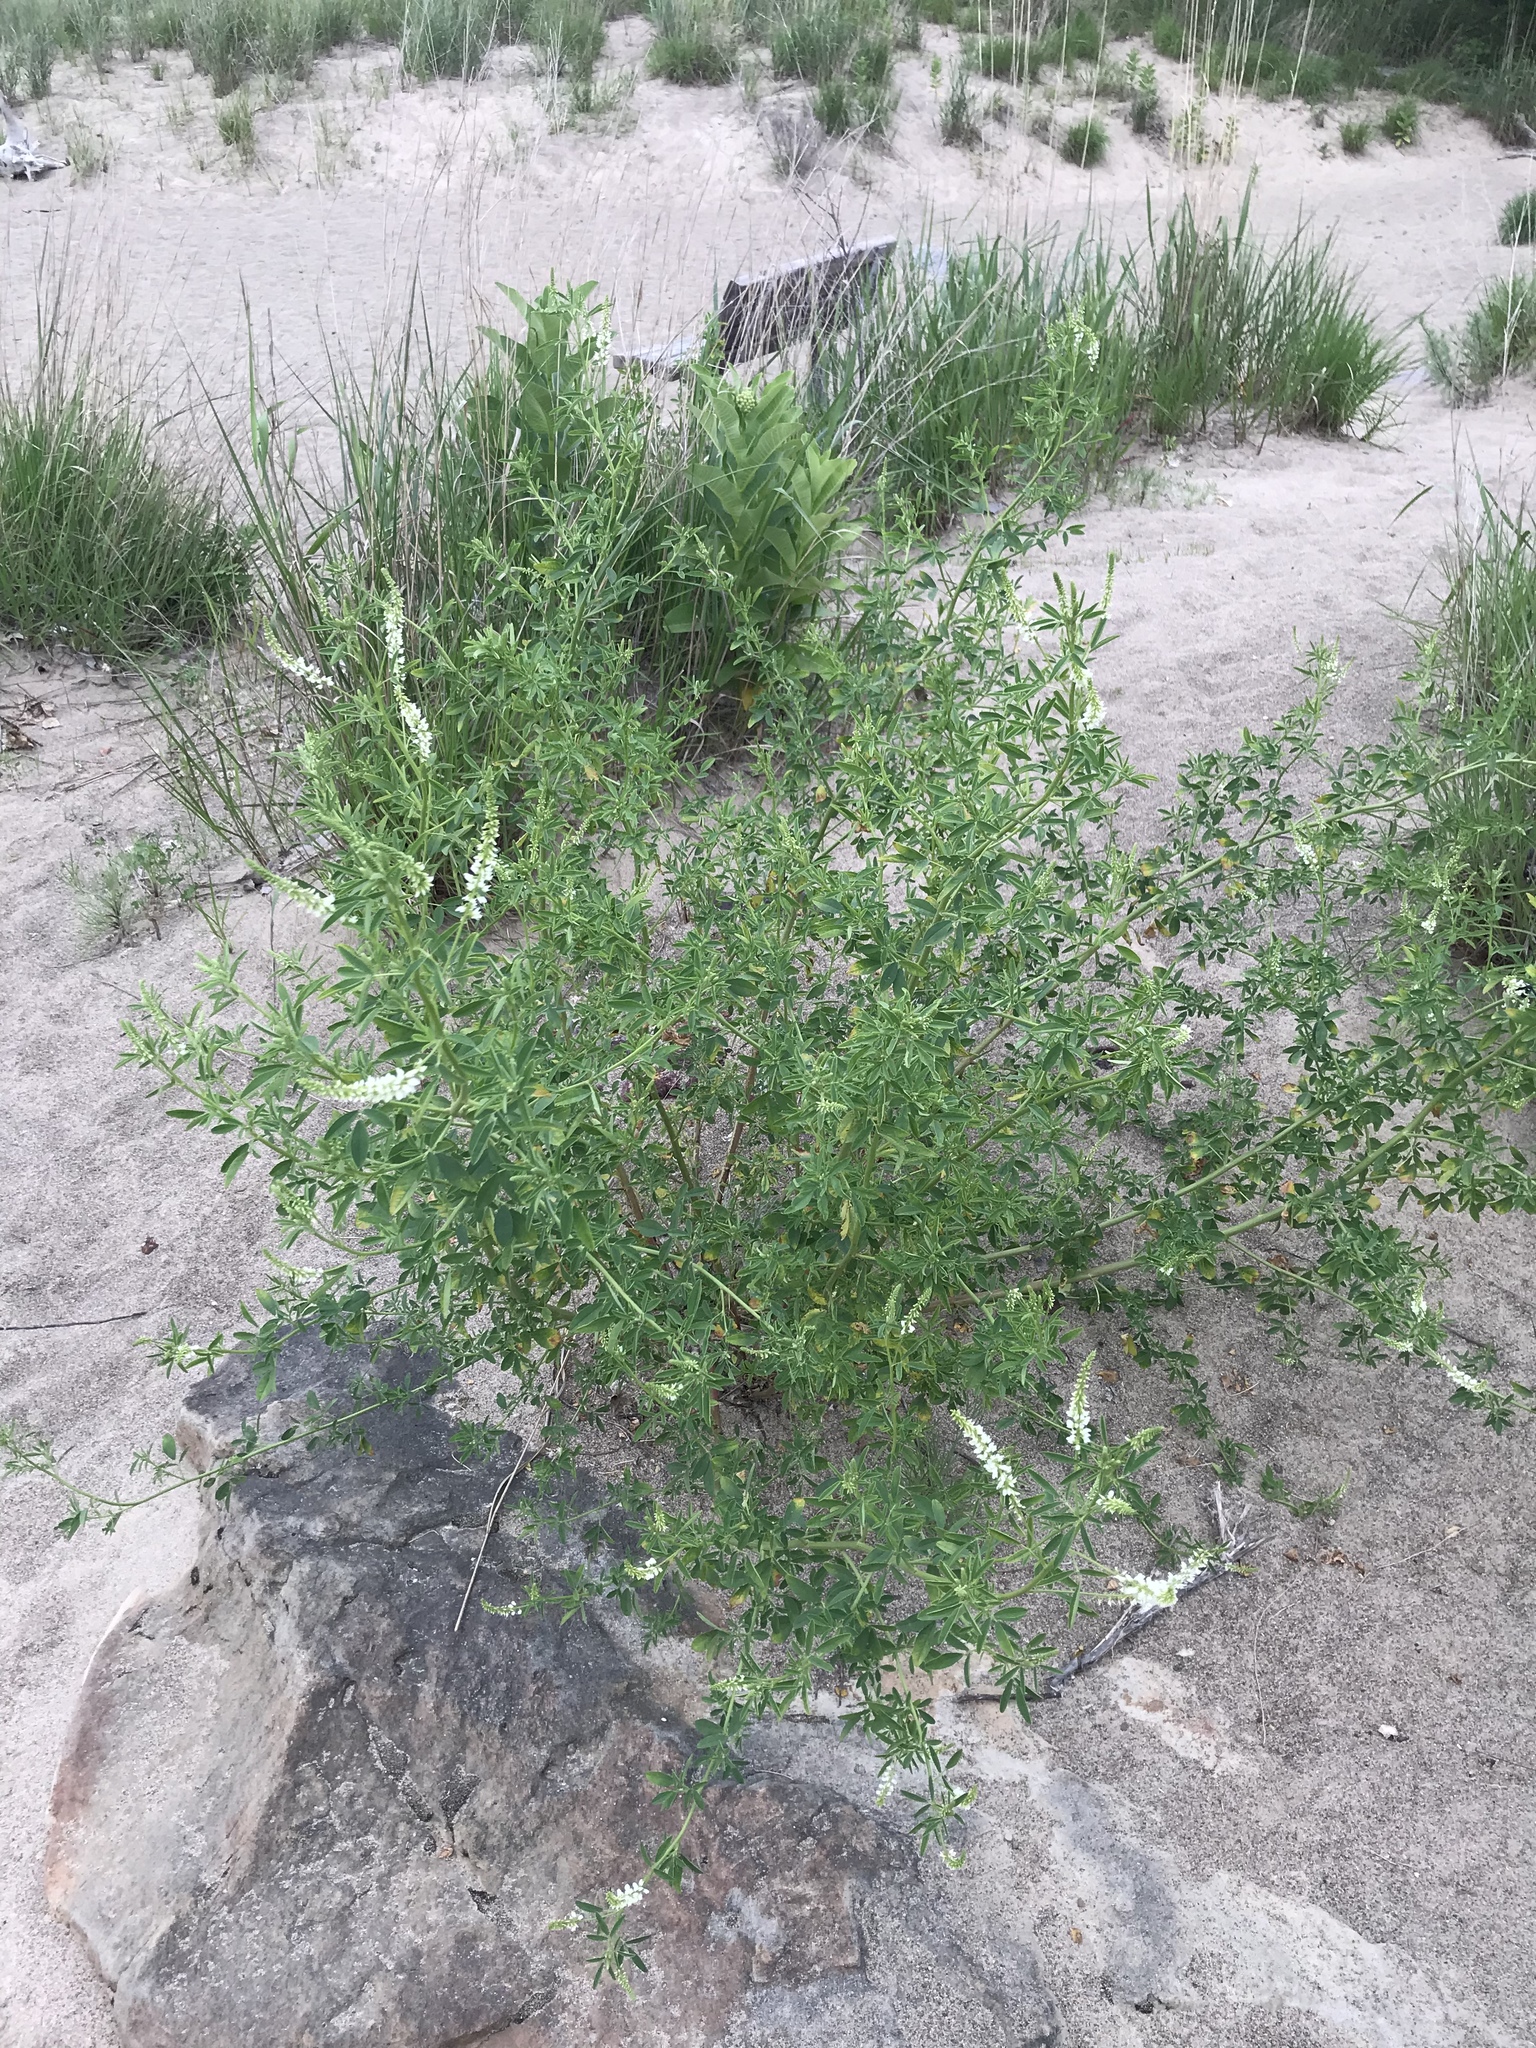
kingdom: Plantae
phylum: Tracheophyta
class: Magnoliopsida
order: Fabales
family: Fabaceae
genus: Melilotus
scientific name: Melilotus albus
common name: White melilot
